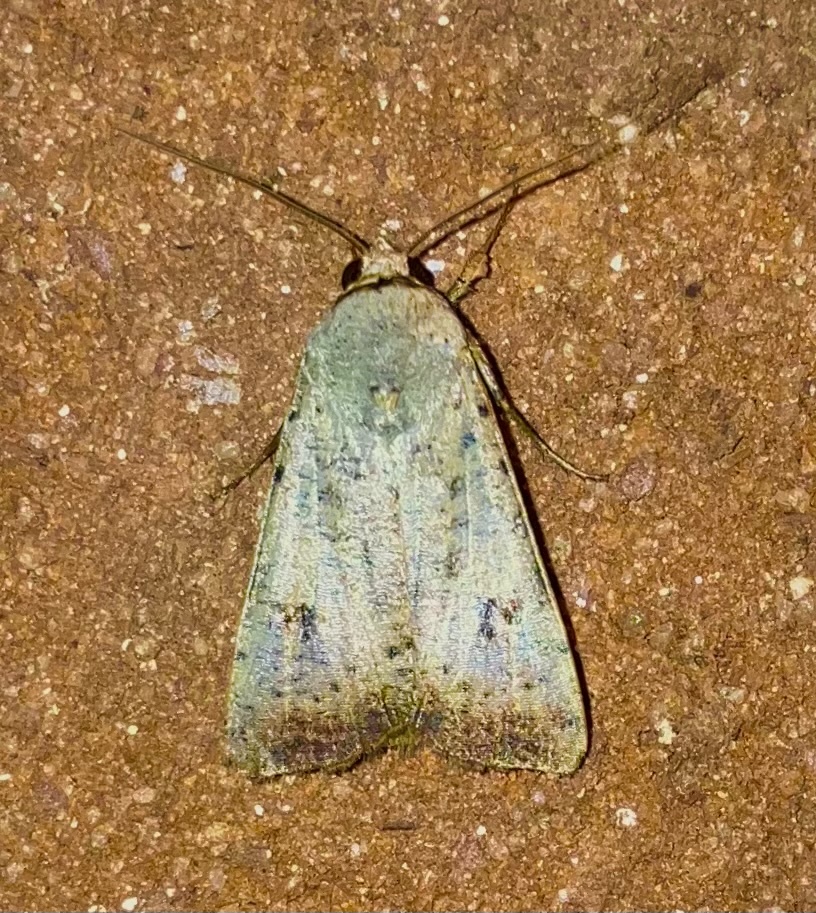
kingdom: Animalia
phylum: Arthropoda
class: Insecta
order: Lepidoptera
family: Noctuidae
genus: Anicla
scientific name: Anicla infecta
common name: Green cutworm
